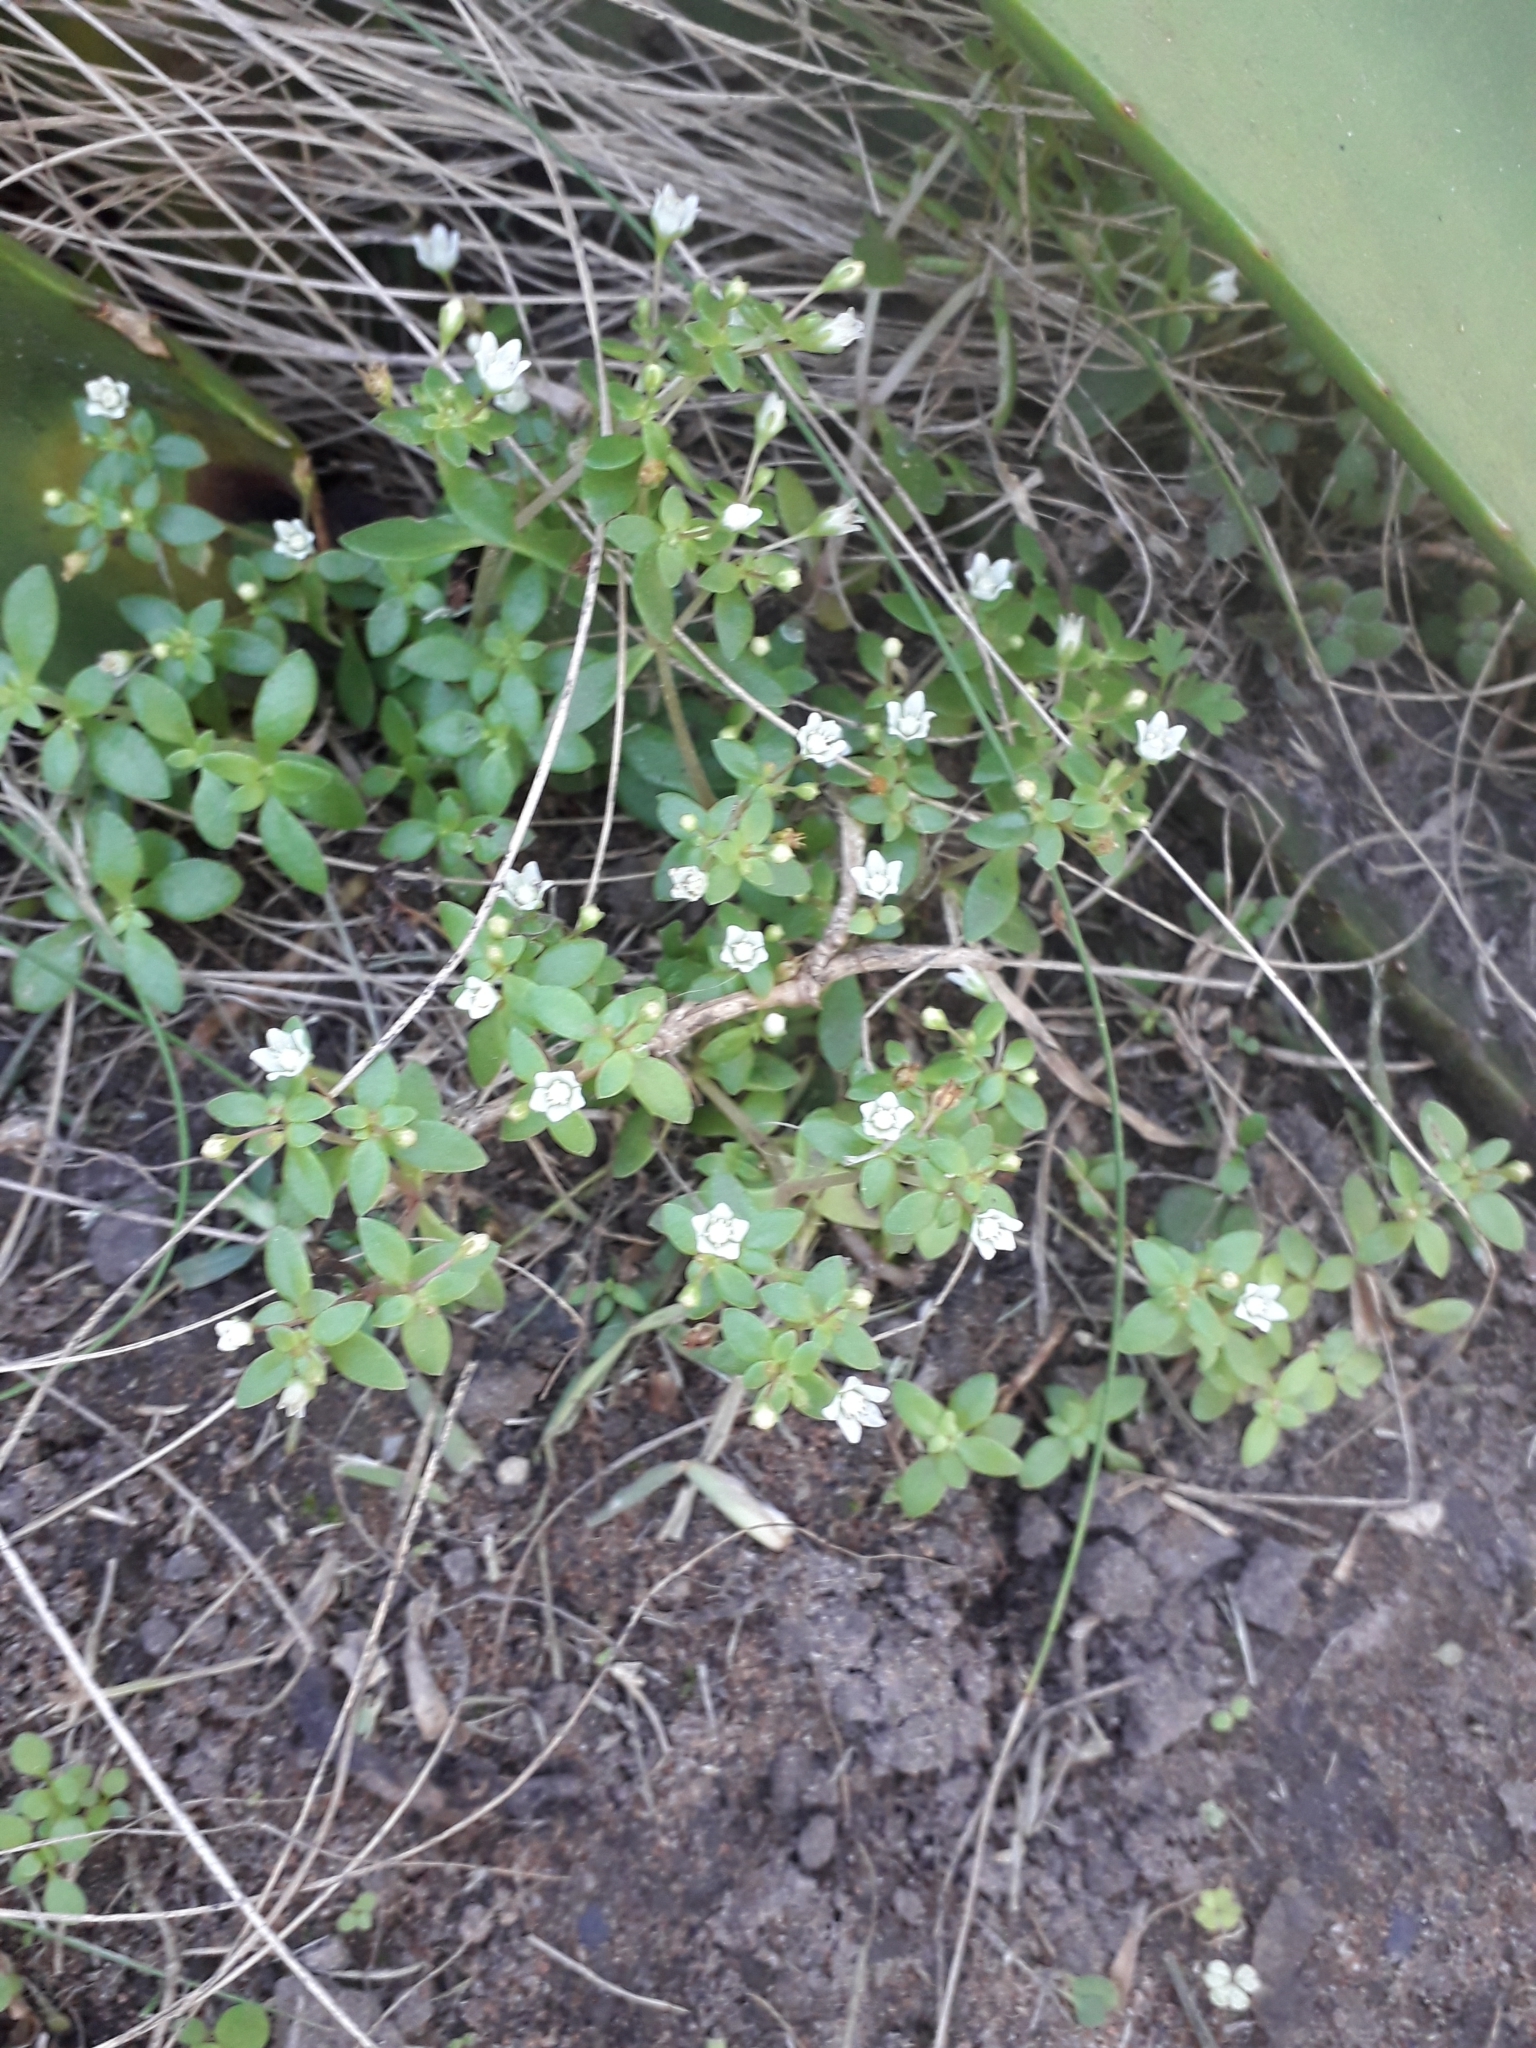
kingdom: Plantae
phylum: Tracheophyta
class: Magnoliopsida
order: Saxifragales
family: Crassulaceae
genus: Crassula
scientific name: Crassula expansa
